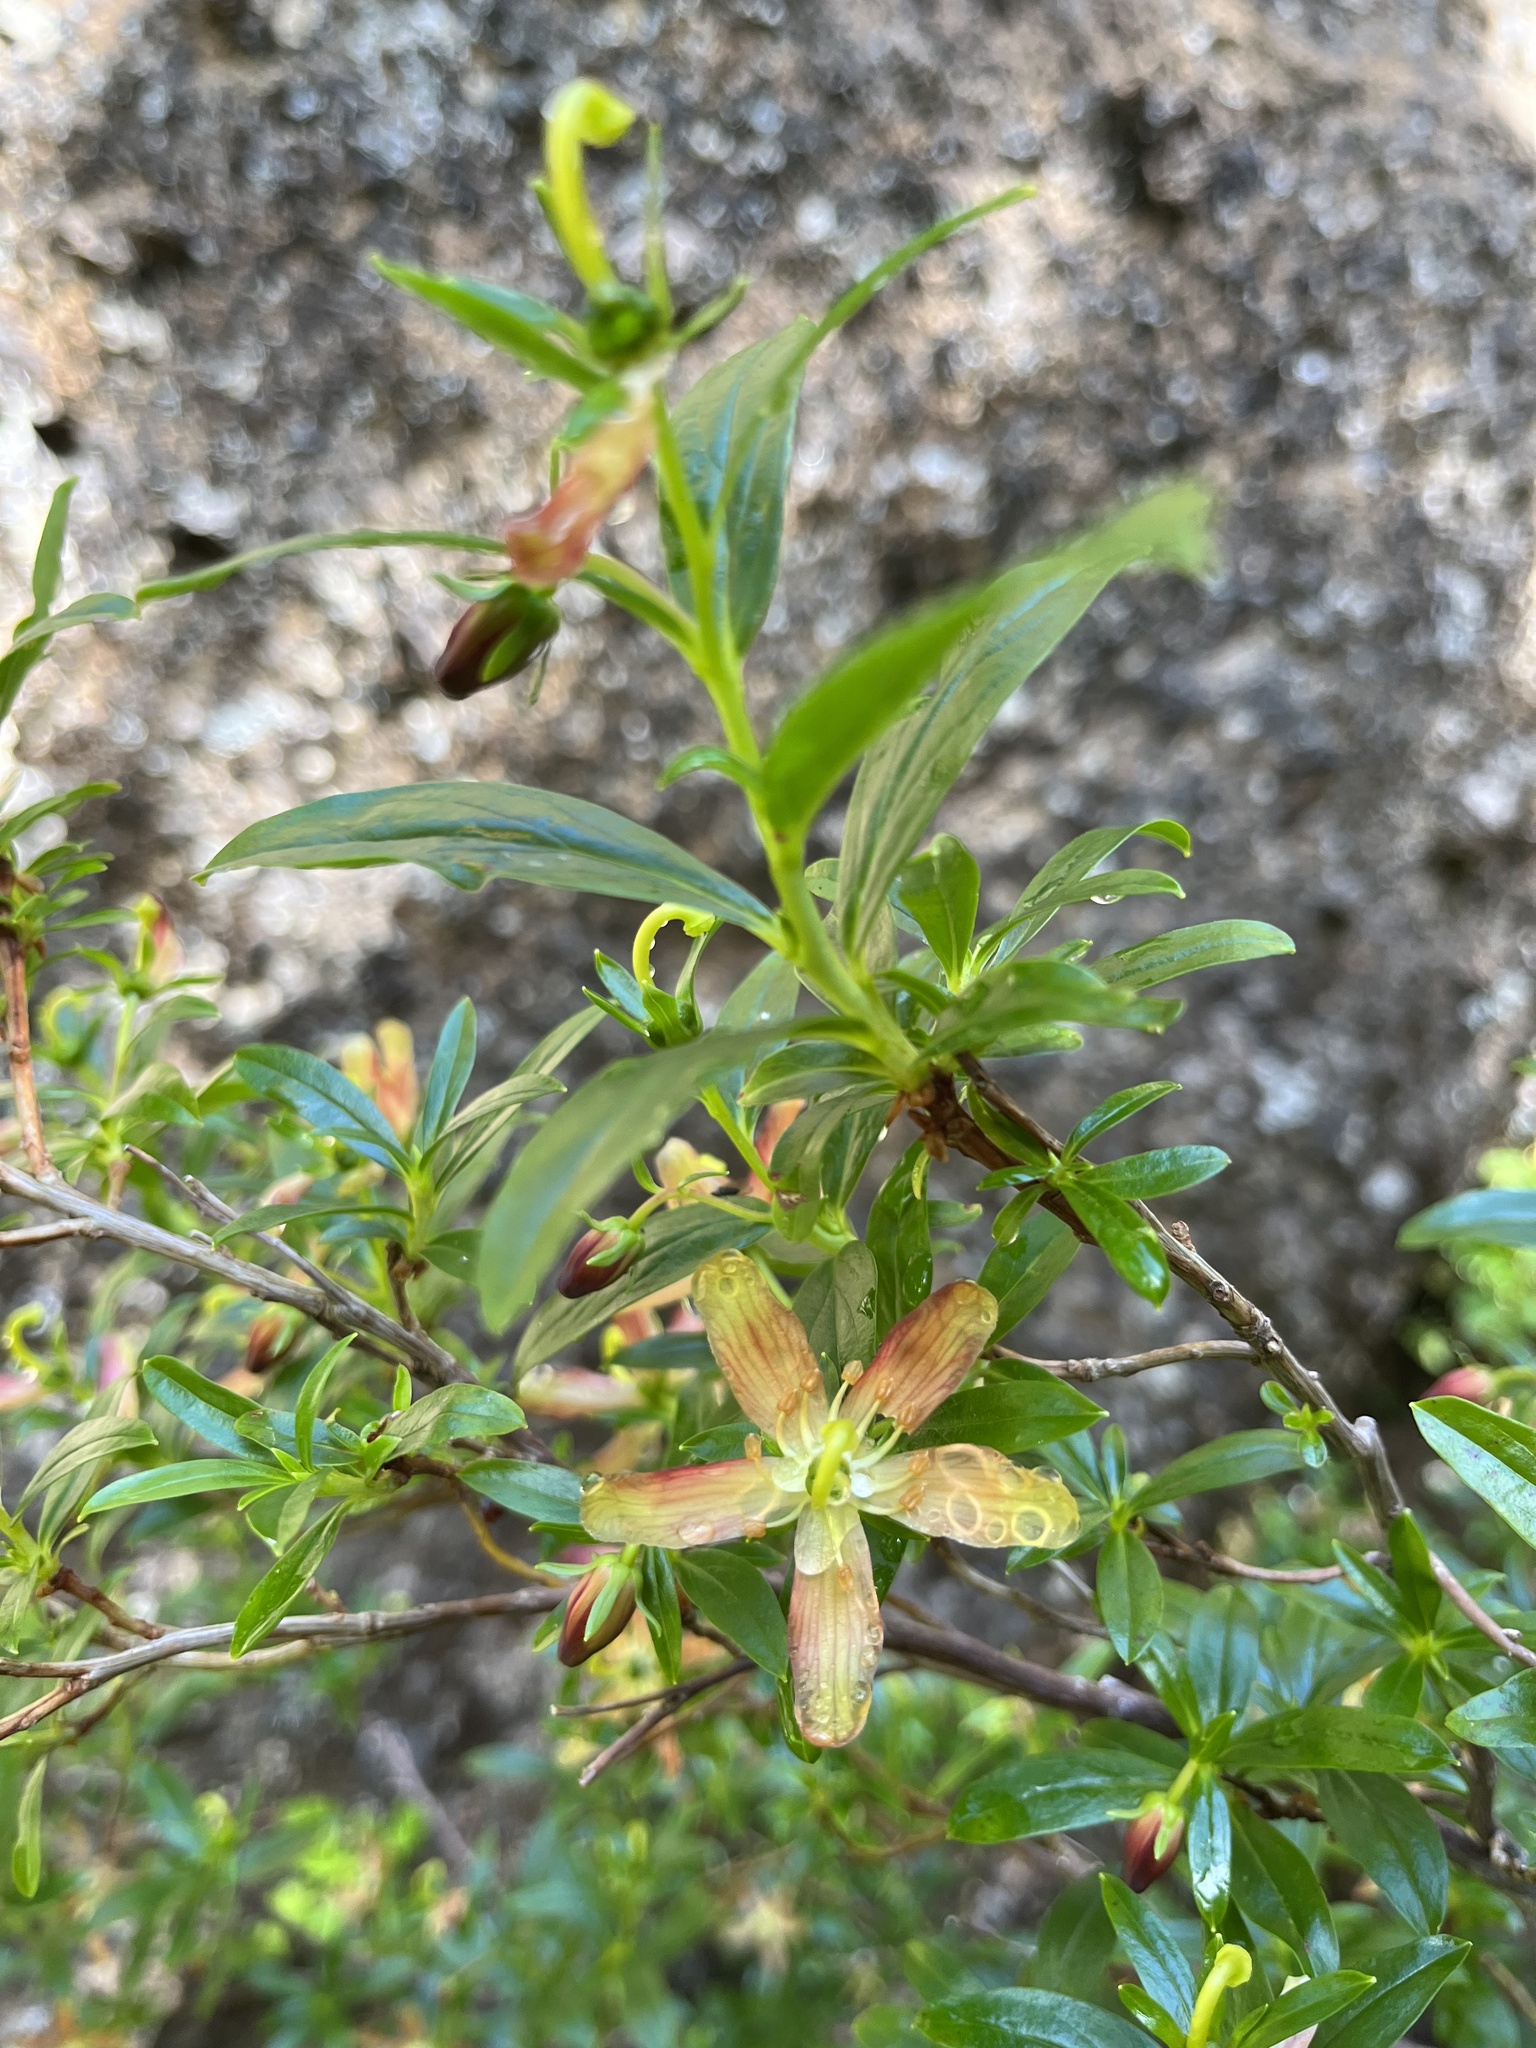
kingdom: Plantae
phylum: Tracheophyta
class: Magnoliopsida
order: Ericales
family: Ericaceae
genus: Elliottia
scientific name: Elliottia pyroliflora
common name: Copperbush
